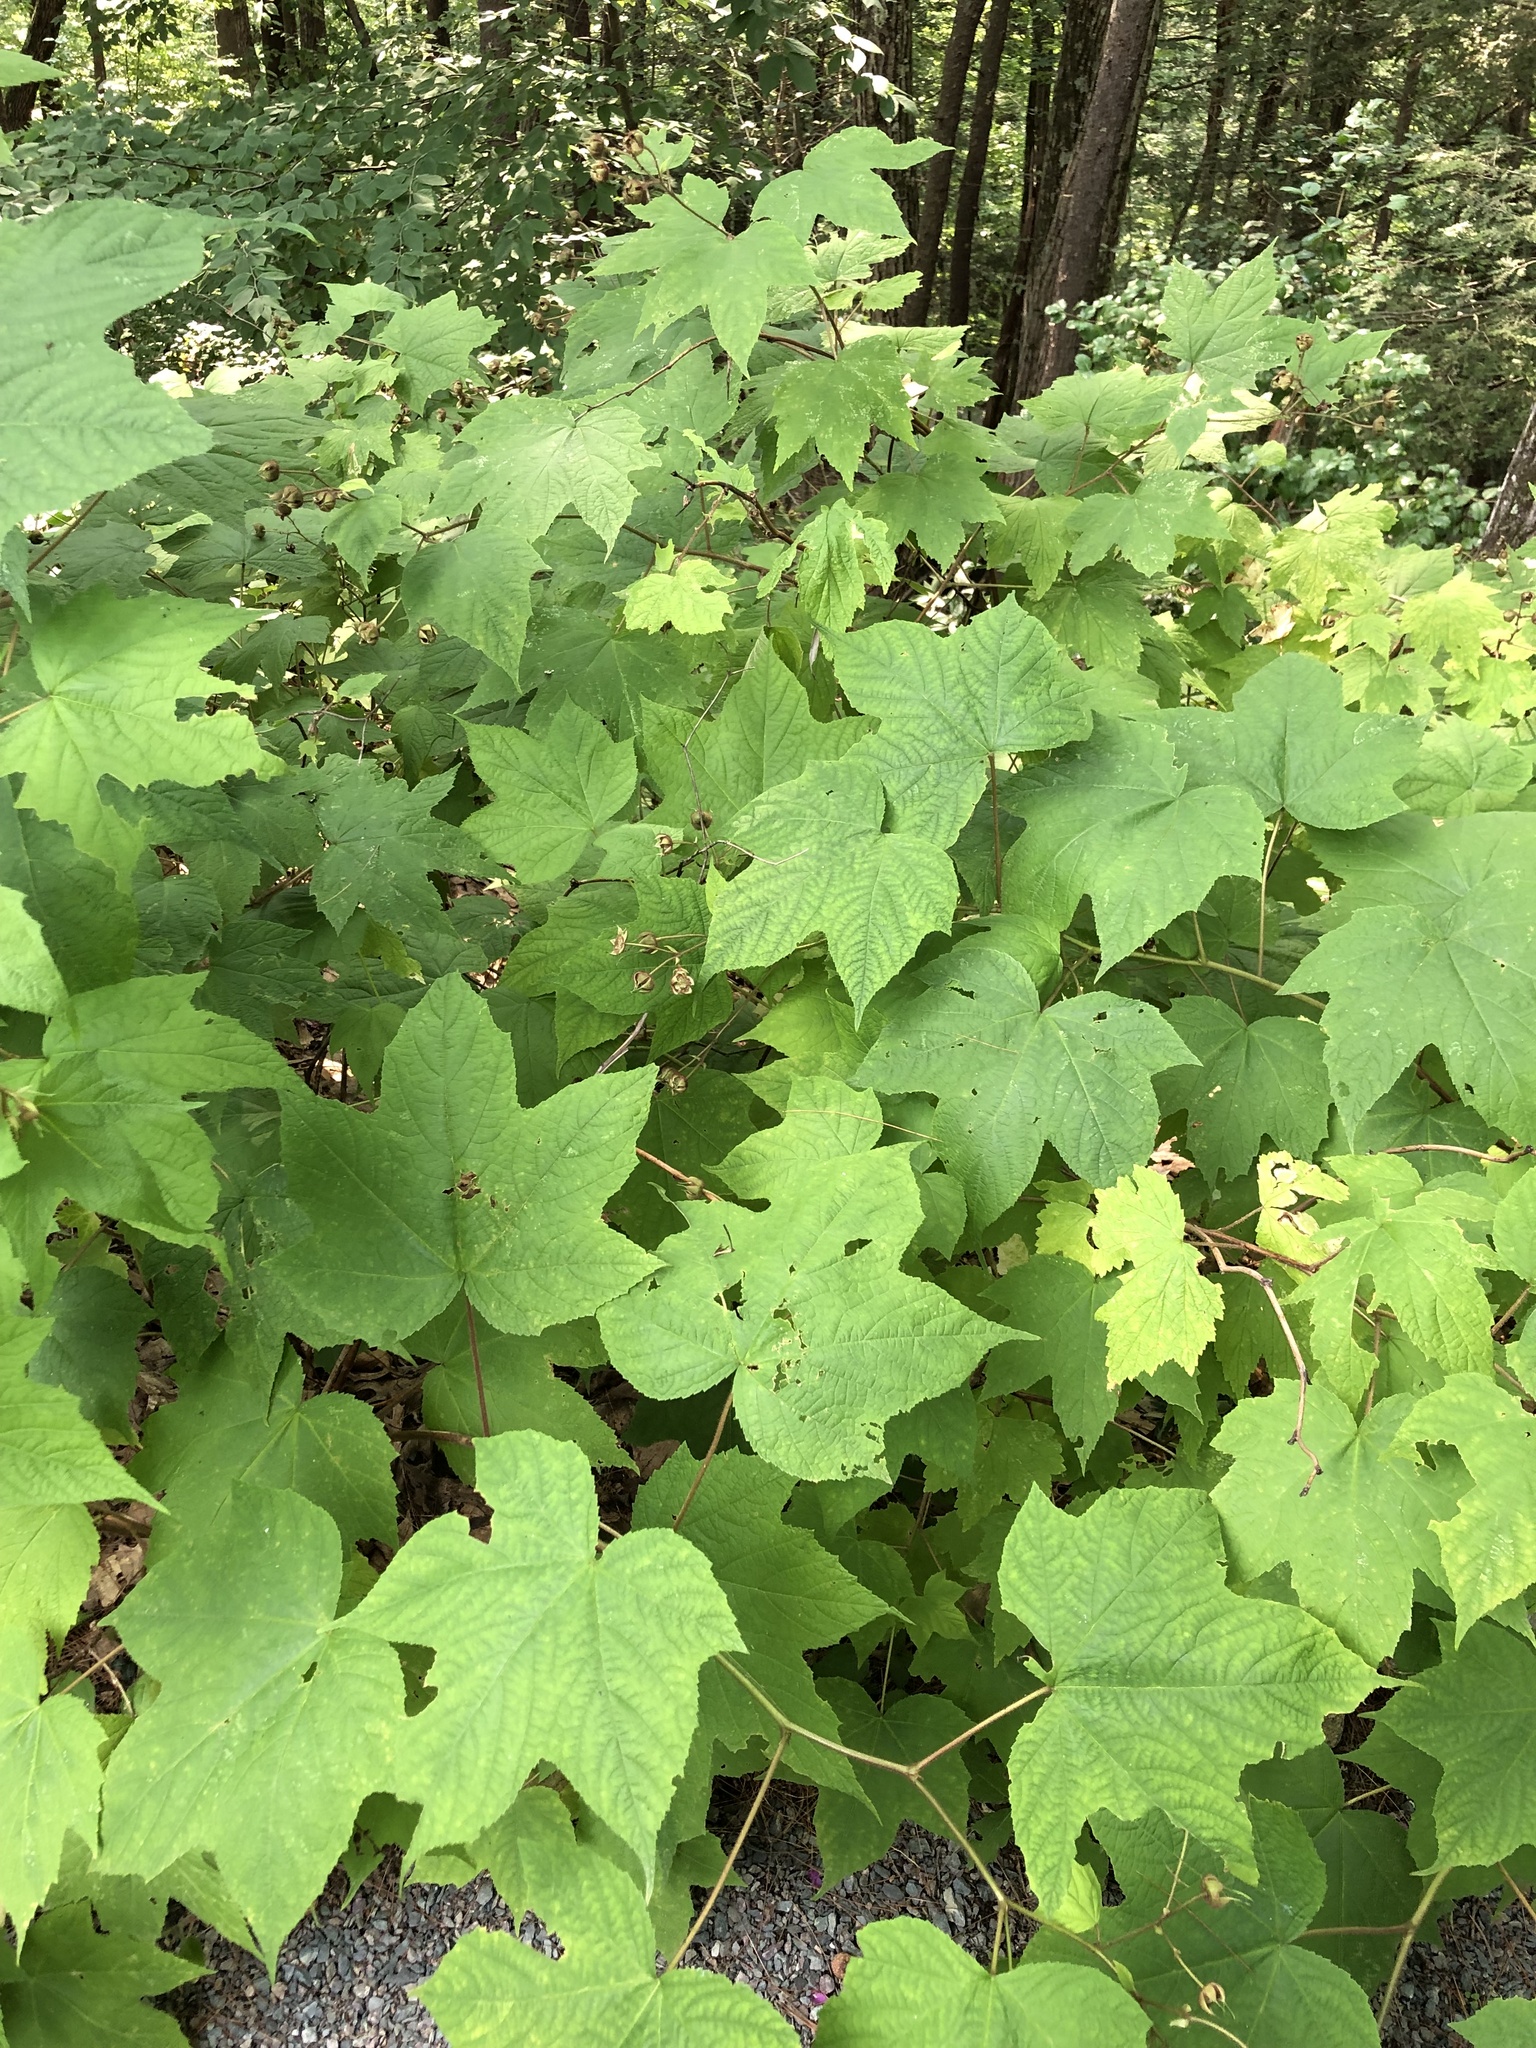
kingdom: Plantae
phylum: Tracheophyta
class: Magnoliopsida
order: Rosales
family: Rosaceae
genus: Rubus
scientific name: Rubus odoratus
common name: Purple-flowered raspberry
